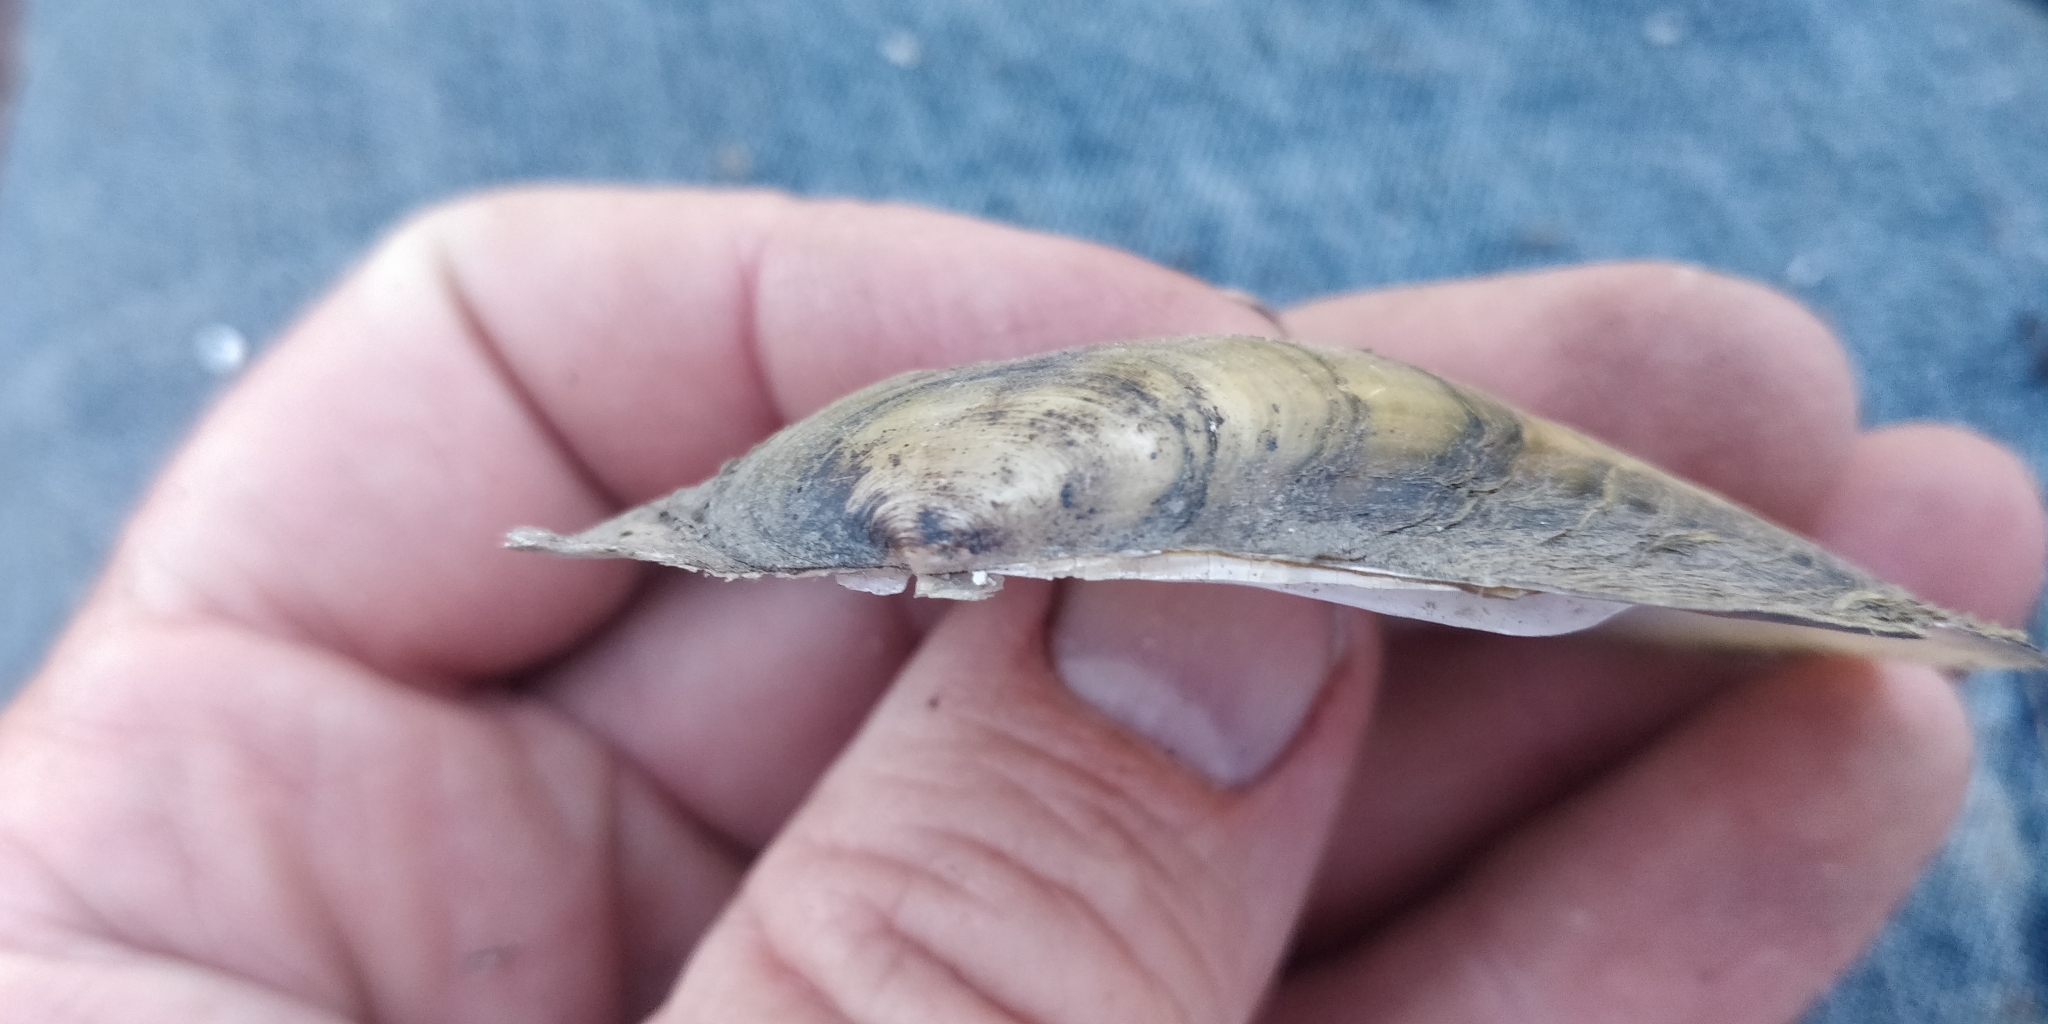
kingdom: Animalia
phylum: Mollusca
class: Bivalvia
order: Unionida
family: Unionidae
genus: Potamilus
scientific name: Potamilus fragilis
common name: Fragile papershell
